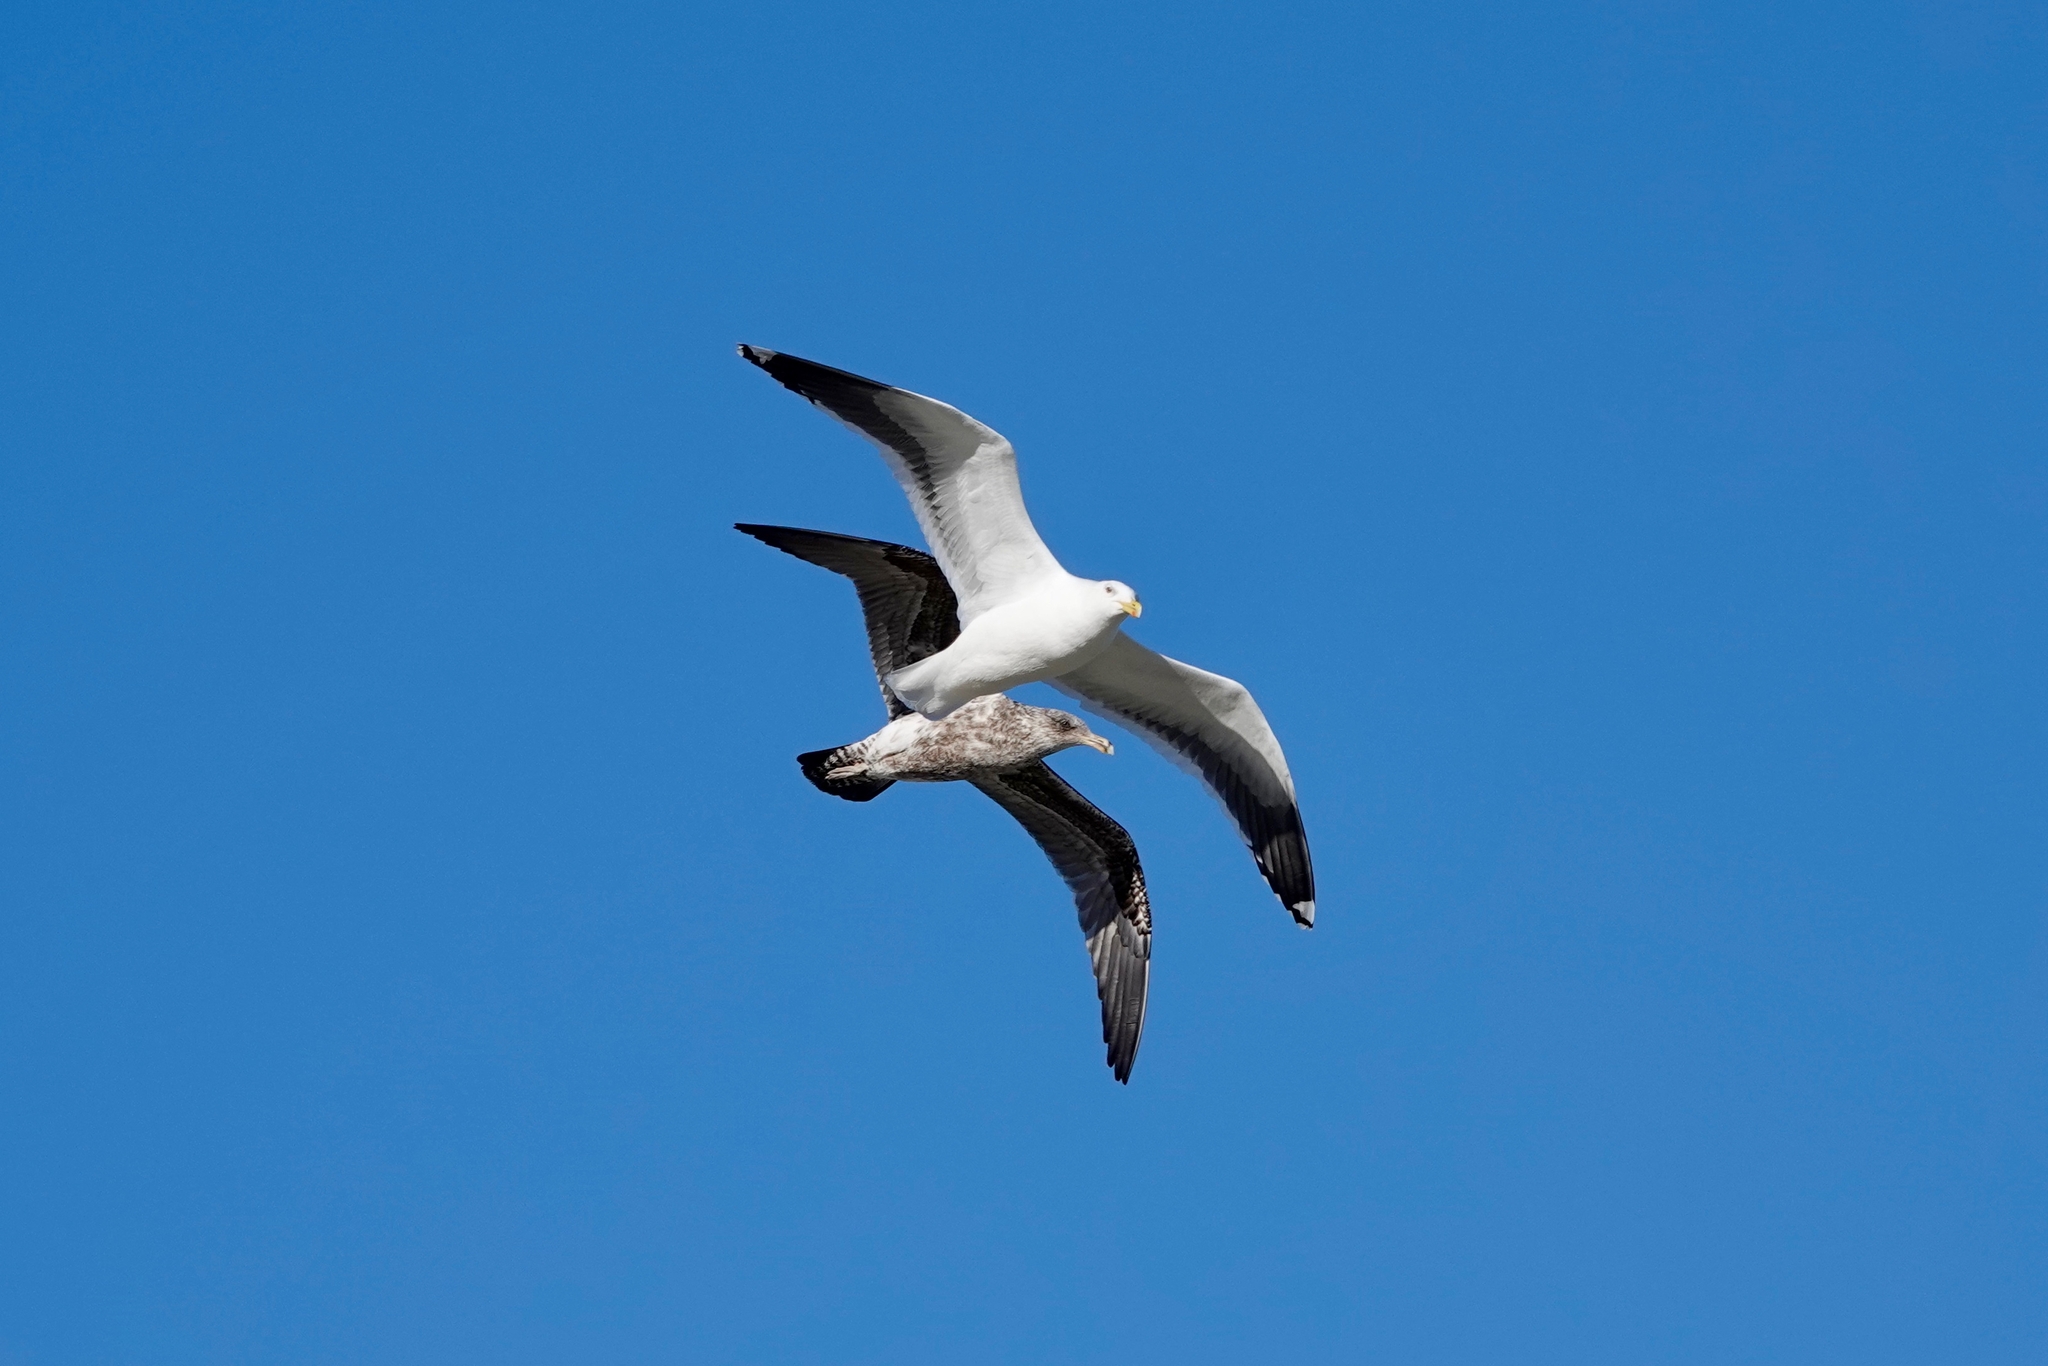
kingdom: Animalia
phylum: Chordata
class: Aves
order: Charadriiformes
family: Laridae
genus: Larus
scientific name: Larus dominicanus
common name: Kelp gull
